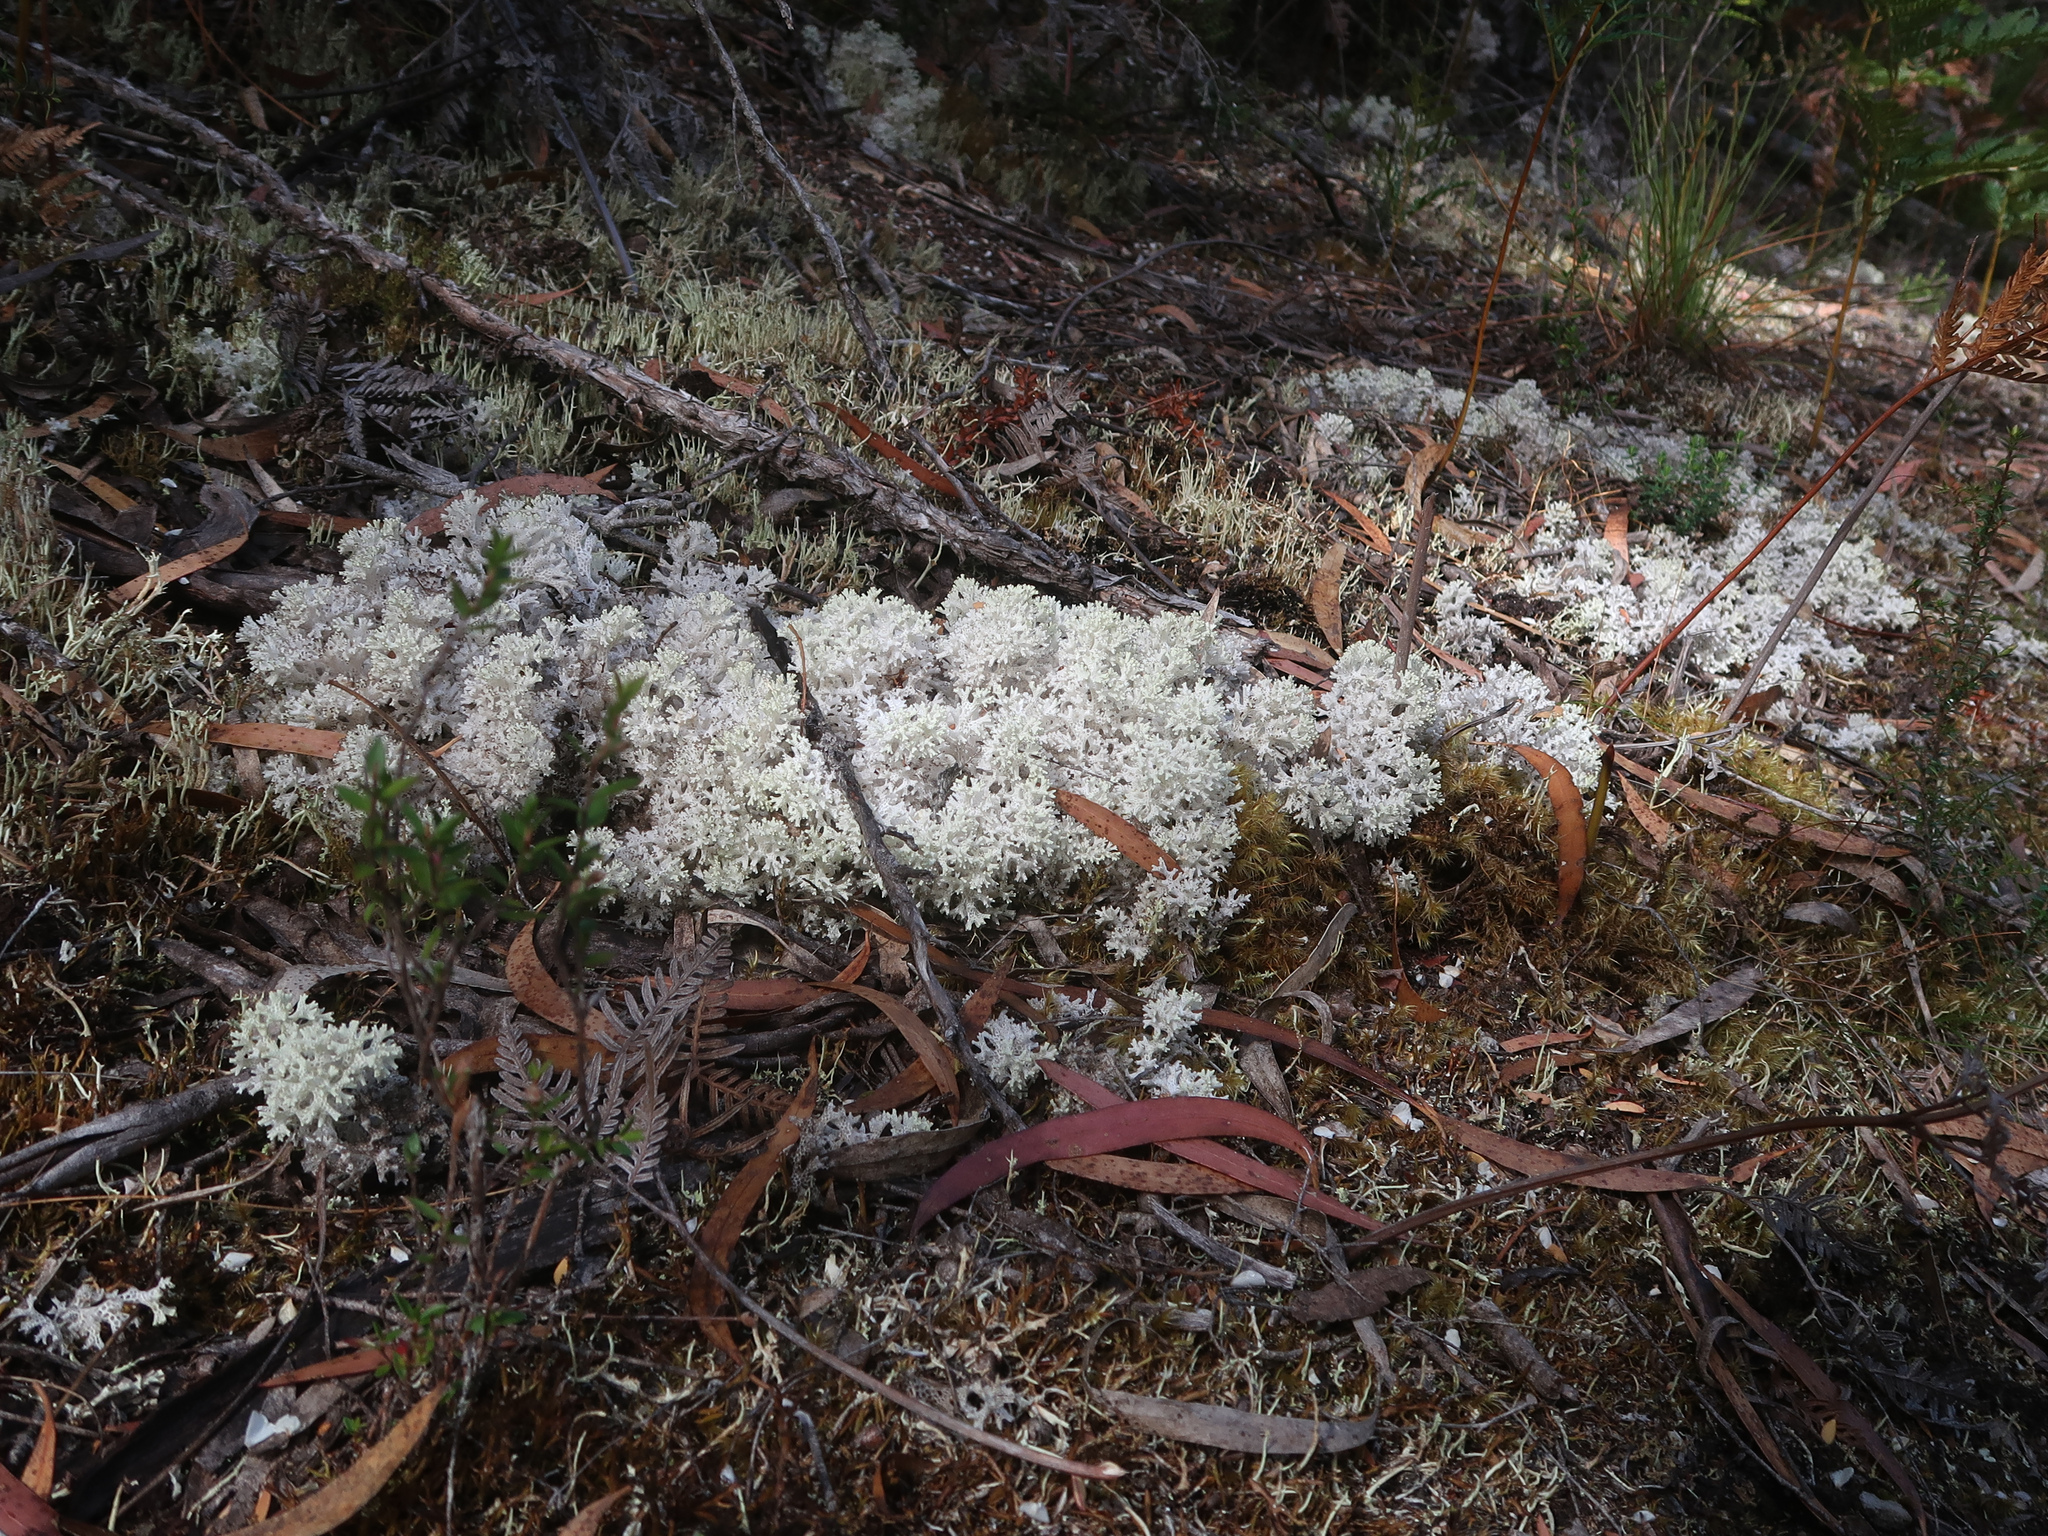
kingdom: Fungi
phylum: Ascomycota
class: Lecanoromycetes
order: Lecanorales
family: Cladoniaceae
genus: Pulchrocladia
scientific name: Pulchrocladia retipora
